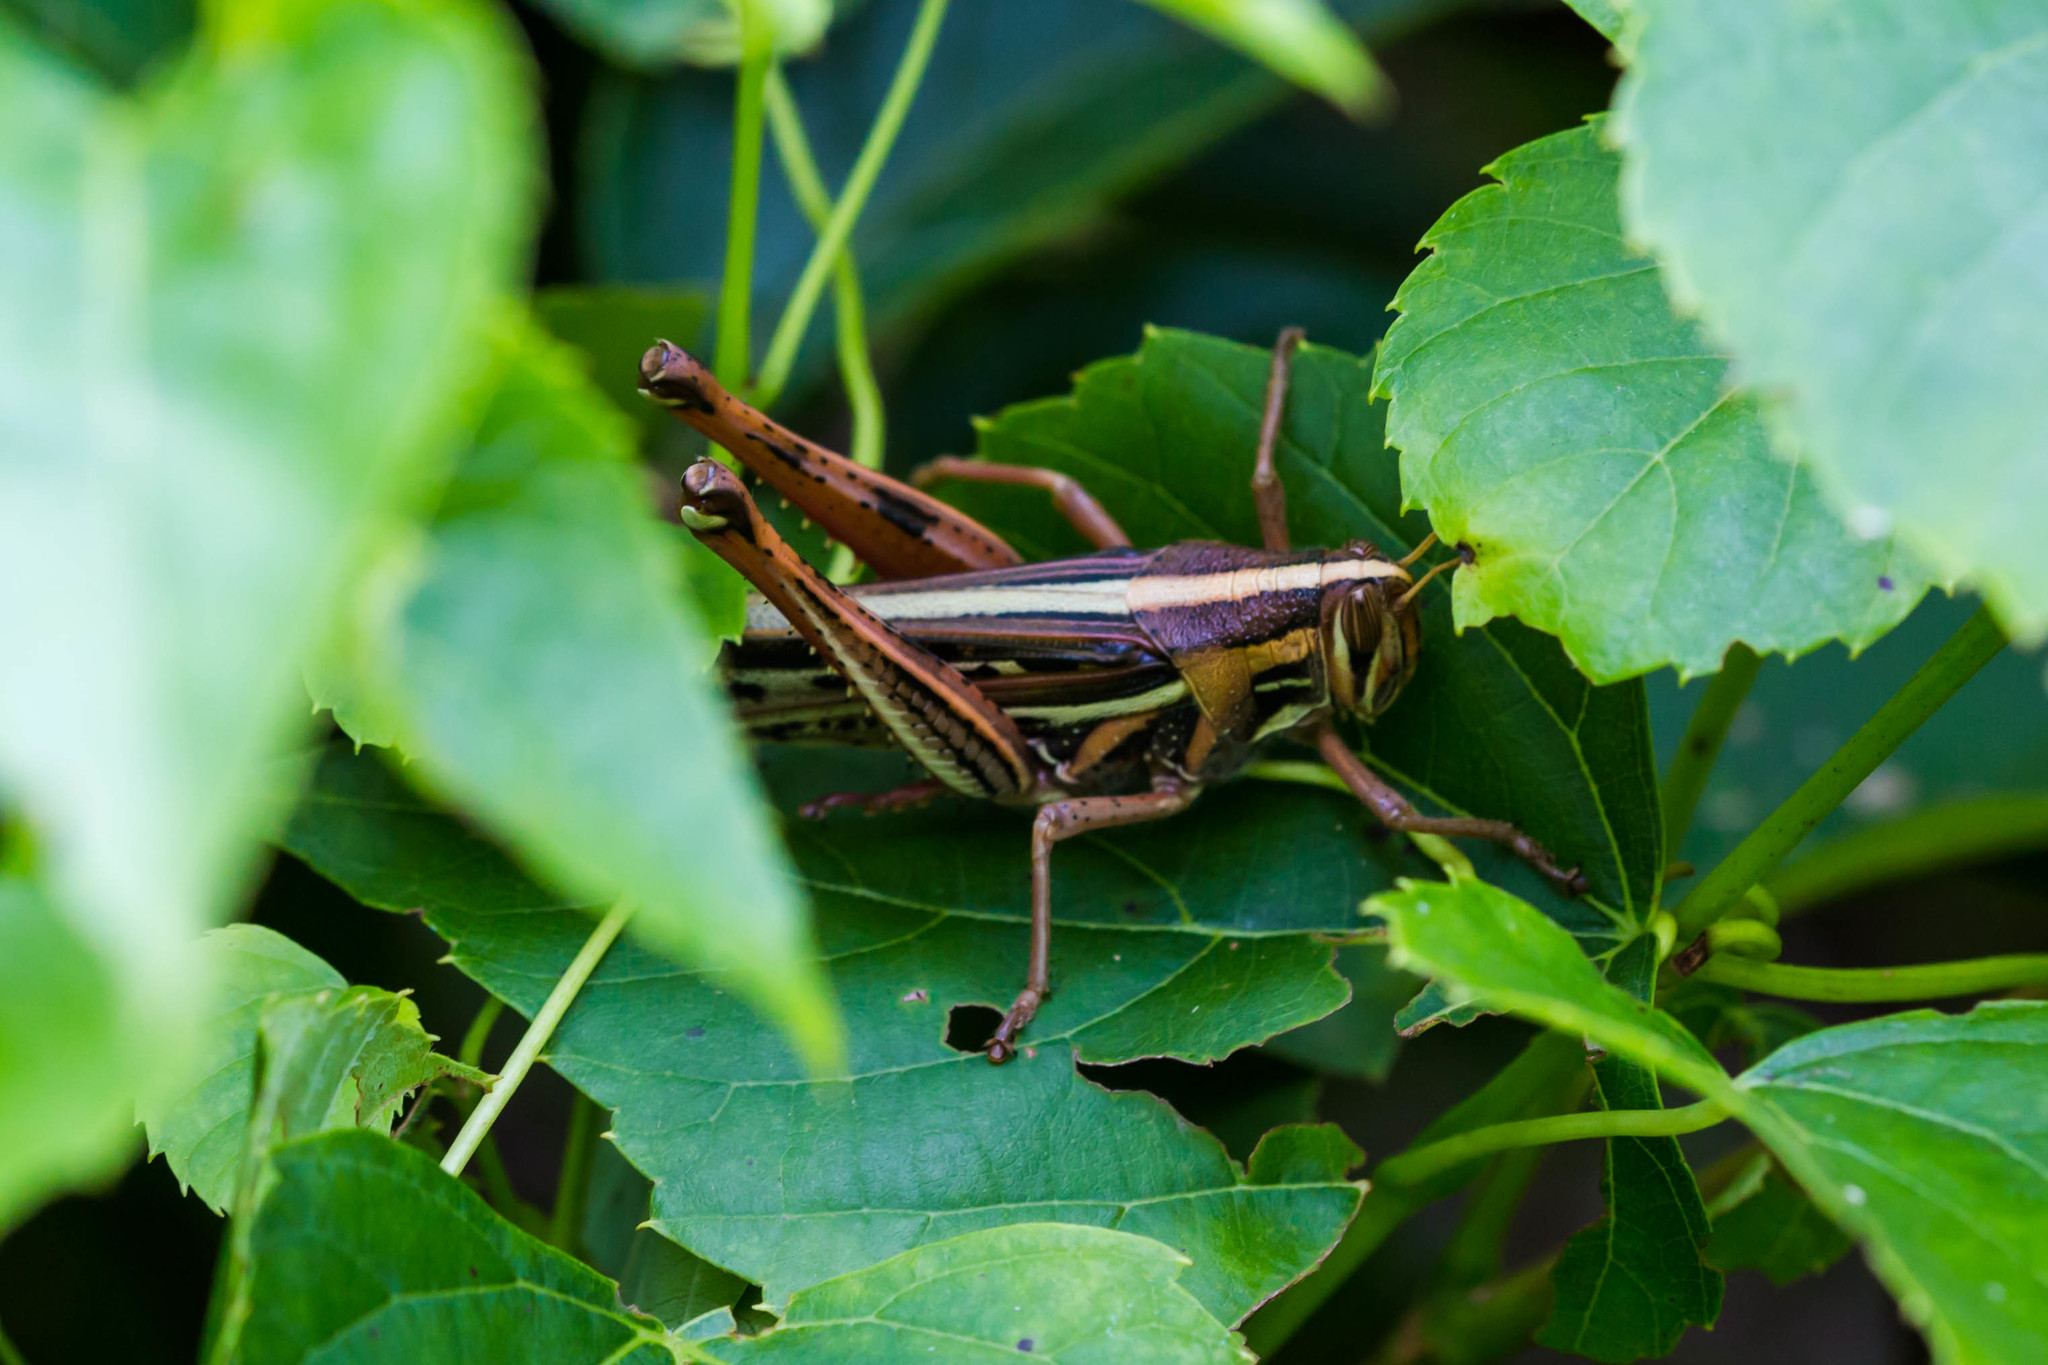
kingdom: Animalia
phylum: Arthropoda
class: Insecta
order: Orthoptera
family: Acrididae
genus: Schistocerca
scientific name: Schistocerca americana
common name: American bird locust
